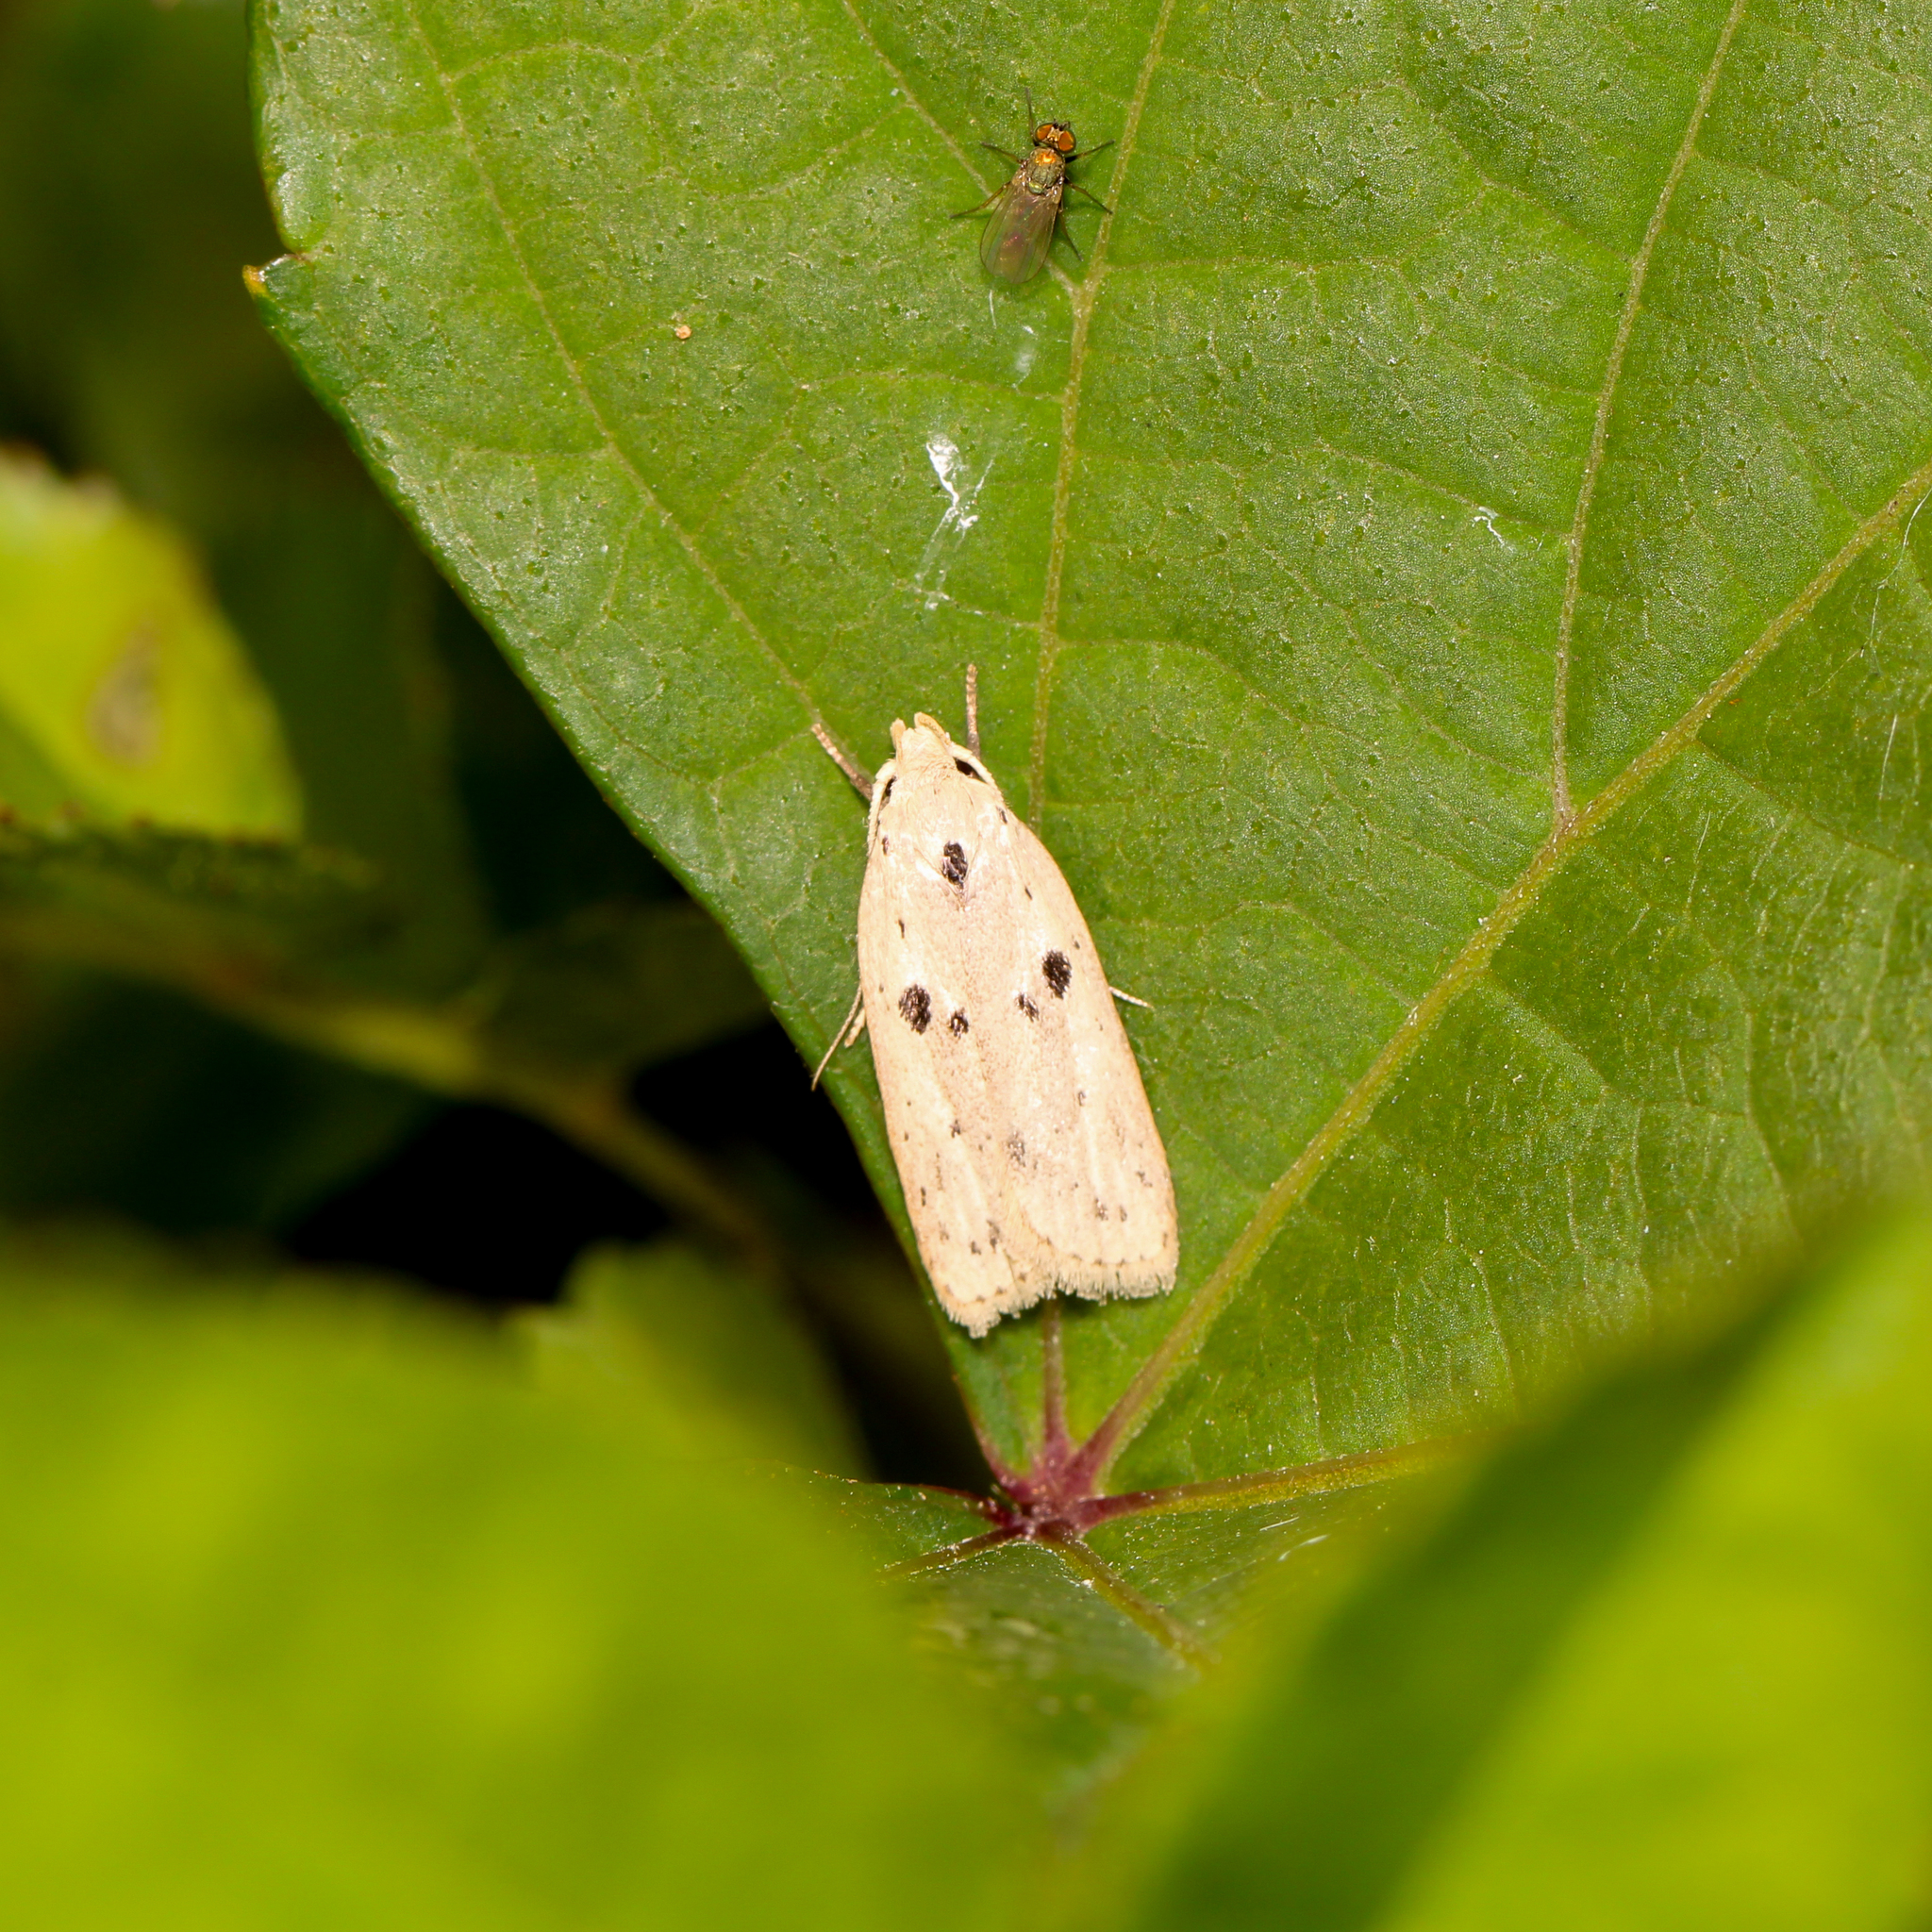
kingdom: Animalia
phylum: Arthropoda
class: Insecta
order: Lepidoptera
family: Peleopodidae
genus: Scythropiodes
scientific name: Scythropiodes issikii
